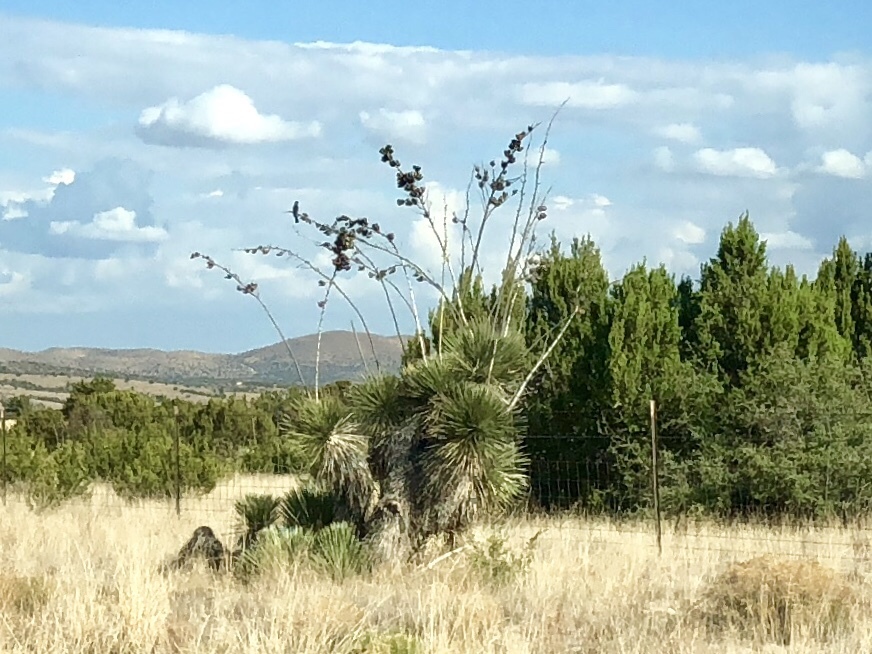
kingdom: Plantae
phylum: Tracheophyta
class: Liliopsida
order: Asparagales
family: Asparagaceae
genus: Yucca
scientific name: Yucca elata
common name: Palmella
